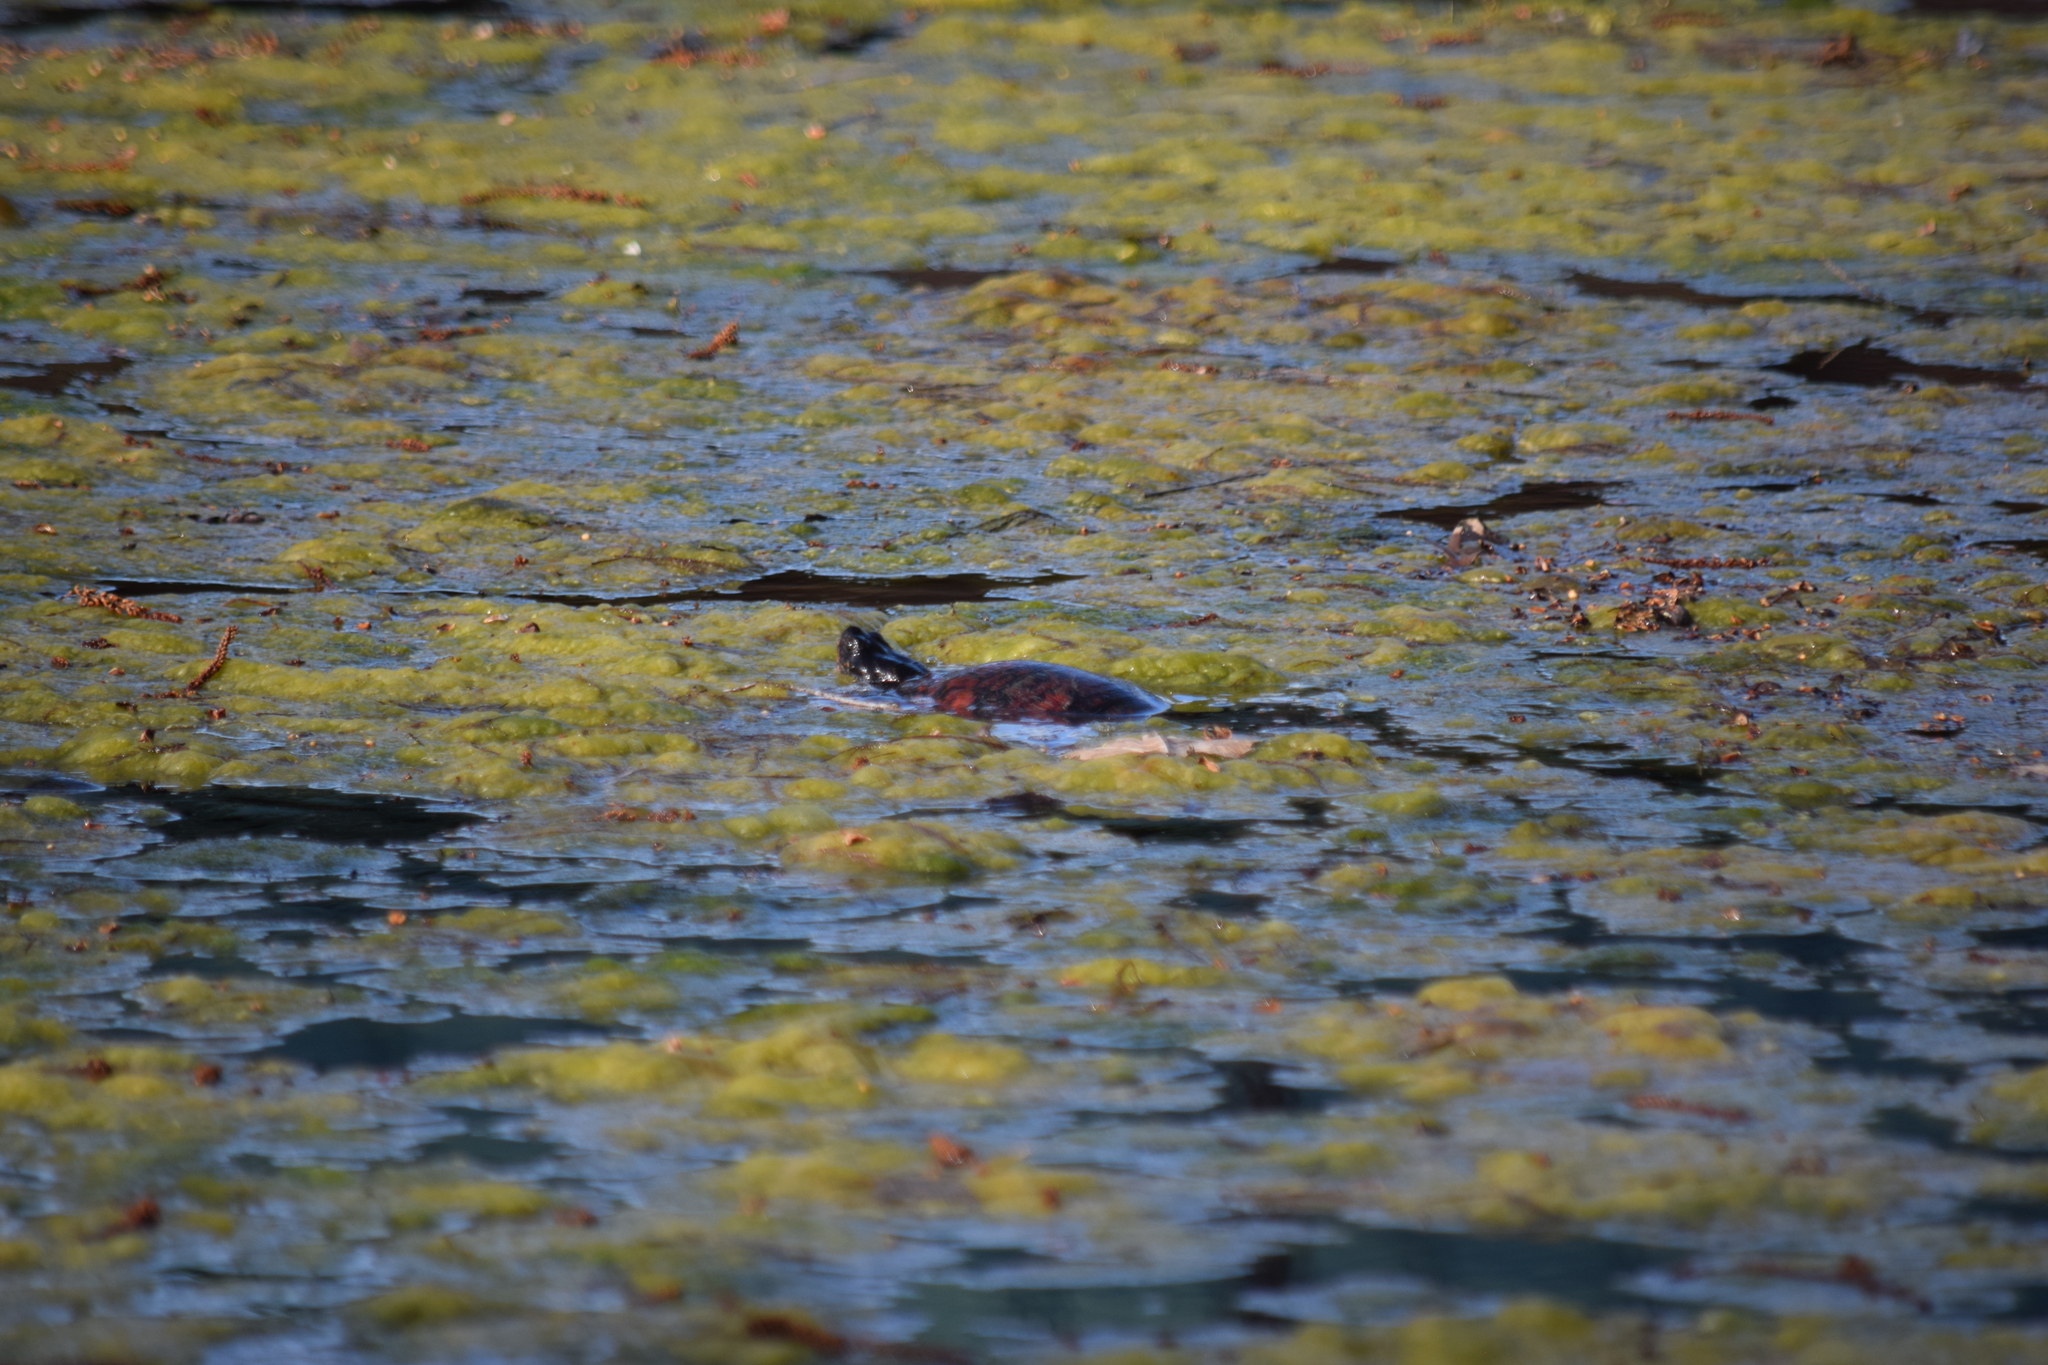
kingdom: Animalia
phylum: Chordata
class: Testudines
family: Emydidae
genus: Pseudemys
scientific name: Pseudemys rubriventris
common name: American red-bellied turtle
